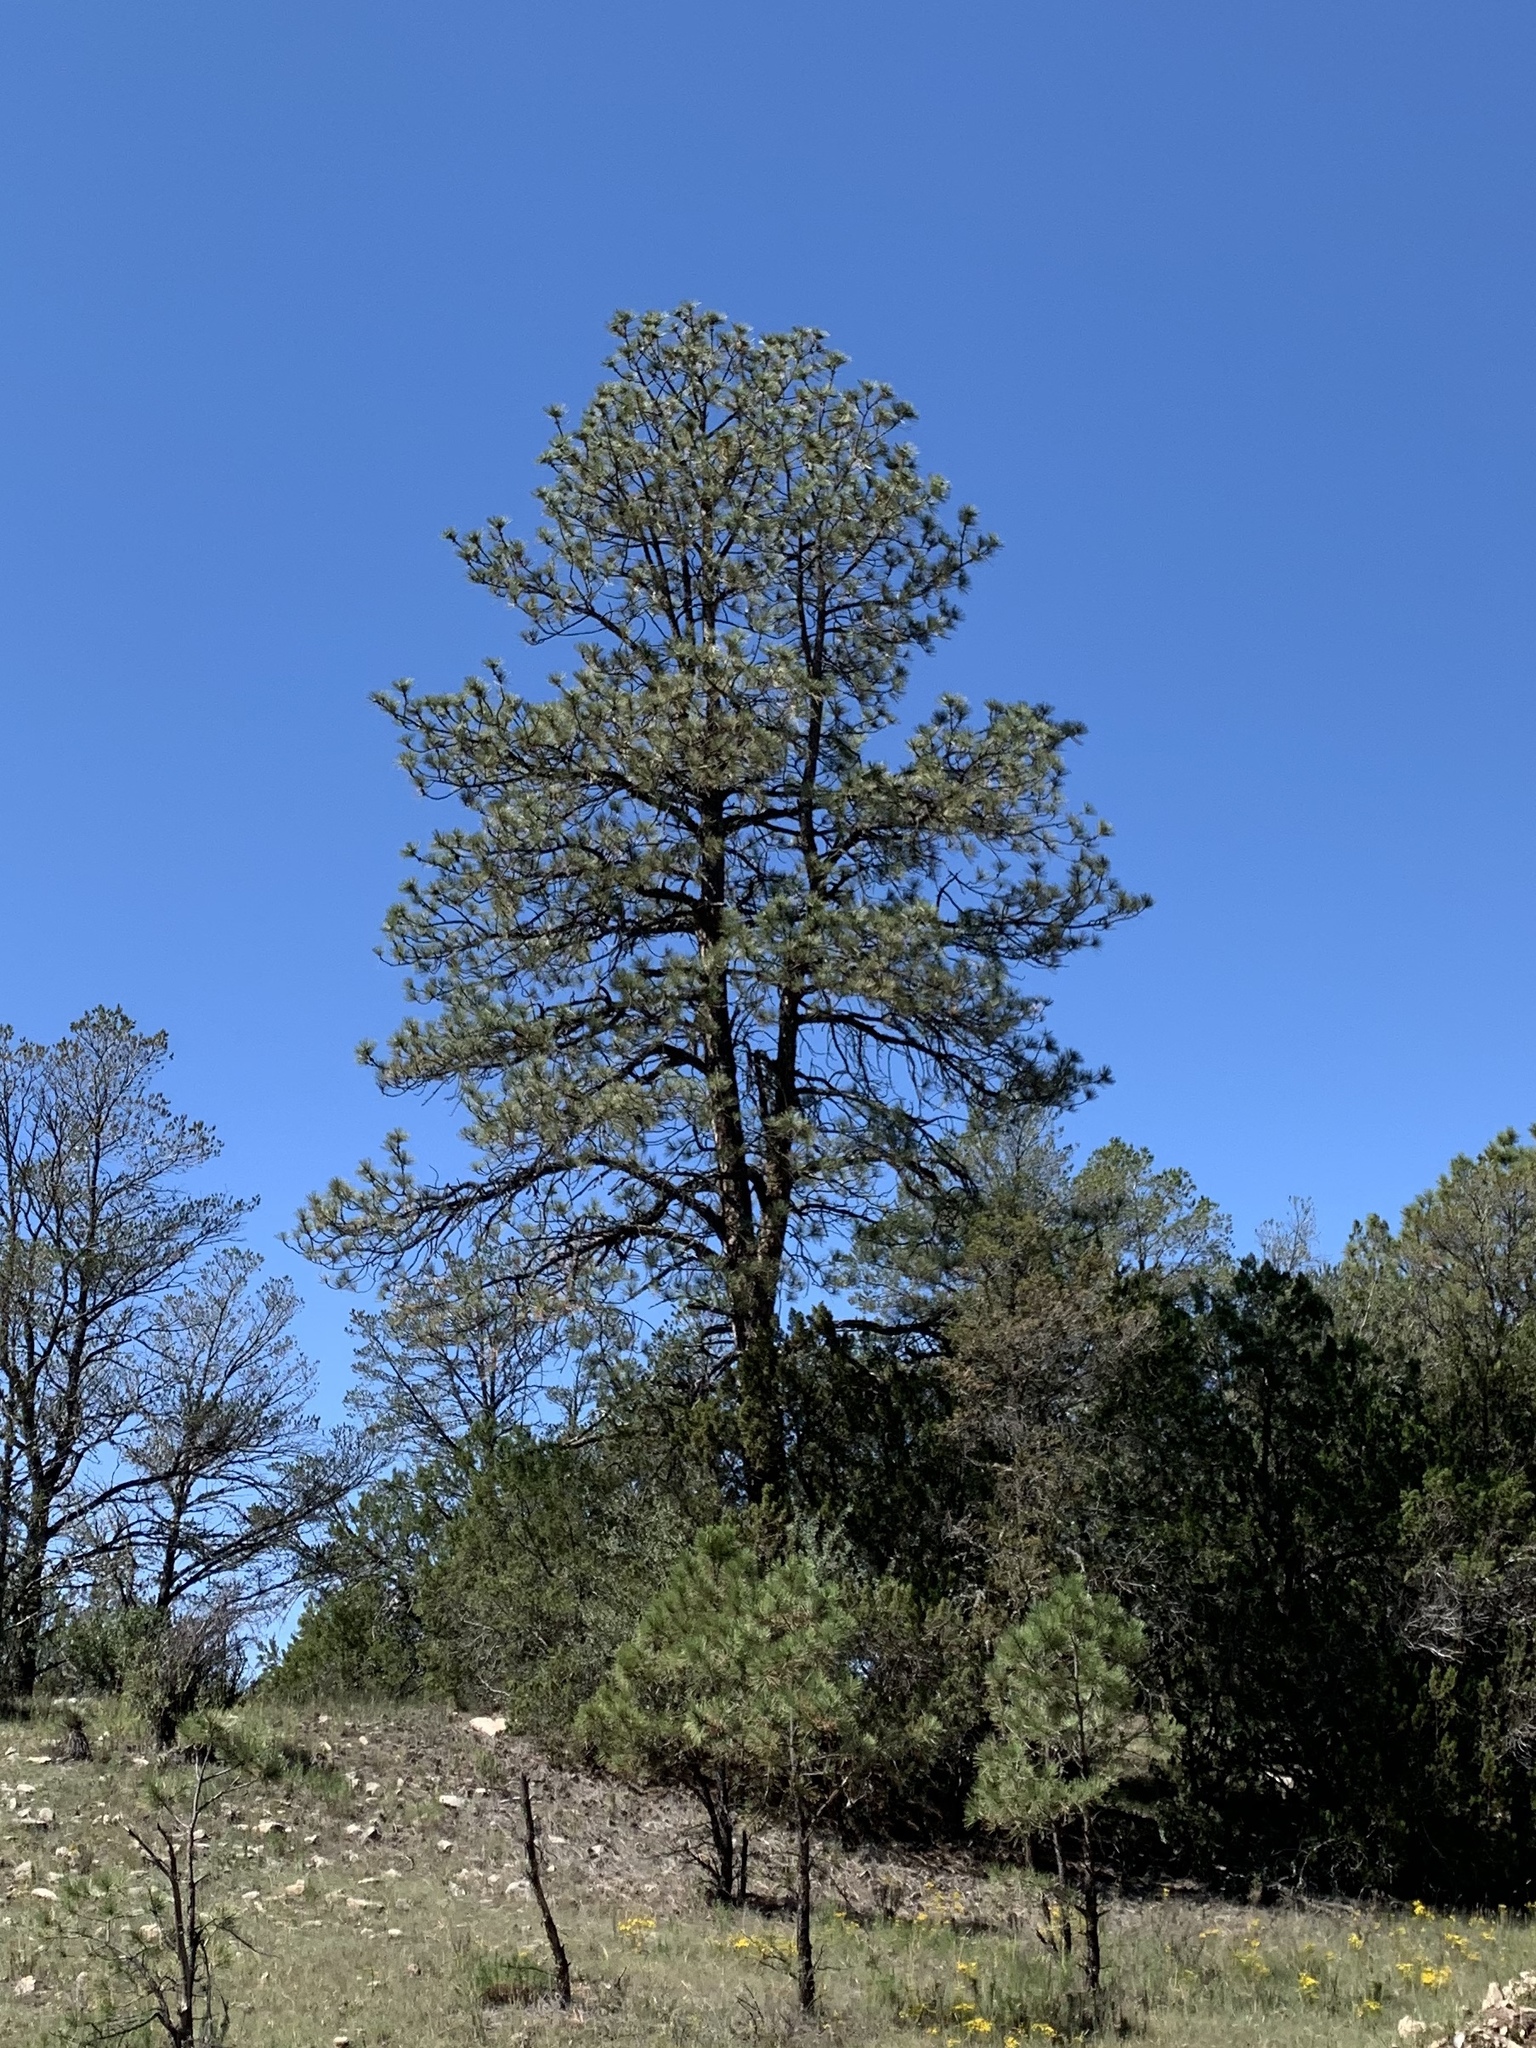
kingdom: Plantae
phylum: Tracheophyta
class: Pinopsida
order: Pinales
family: Pinaceae
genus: Pinus
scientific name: Pinus ponderosa
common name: Western yellow-pine
